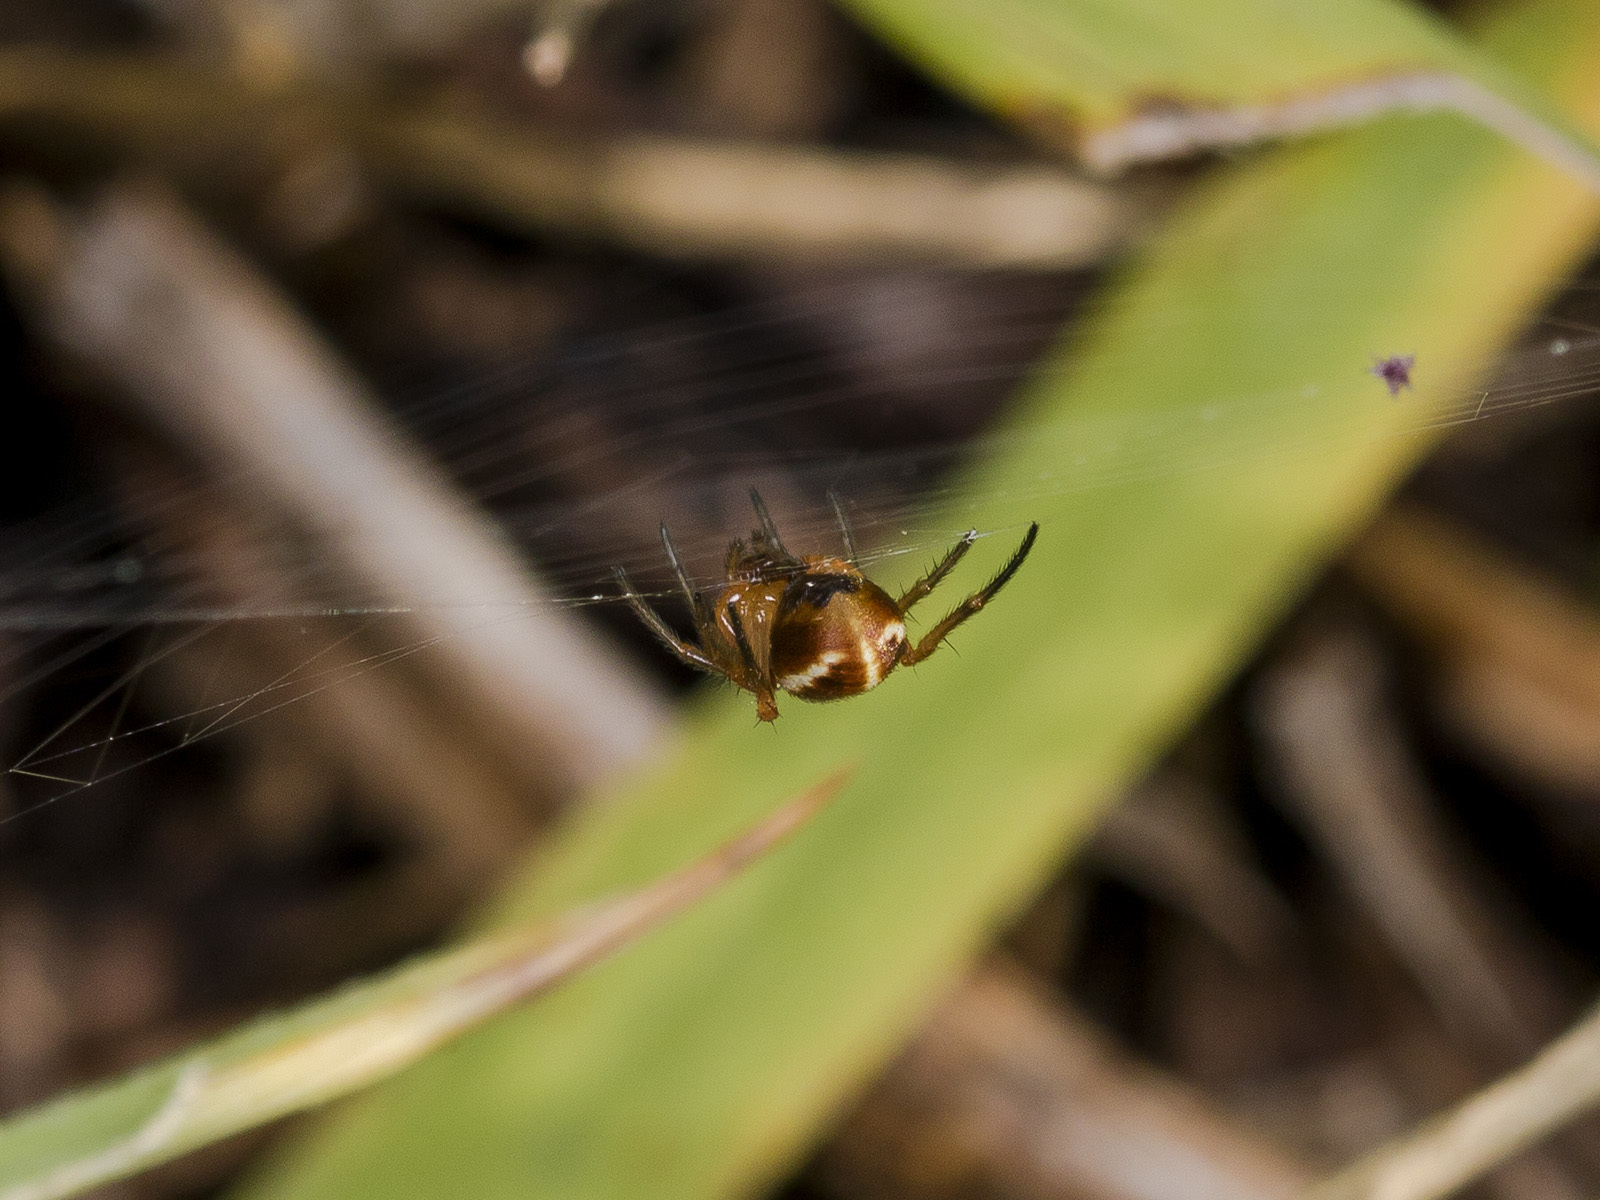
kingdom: Animalia
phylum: Arthropoda
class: Arachnida
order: Araneae
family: Araneidae
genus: Hypsosinga
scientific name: Hypsosinga pygmaea
